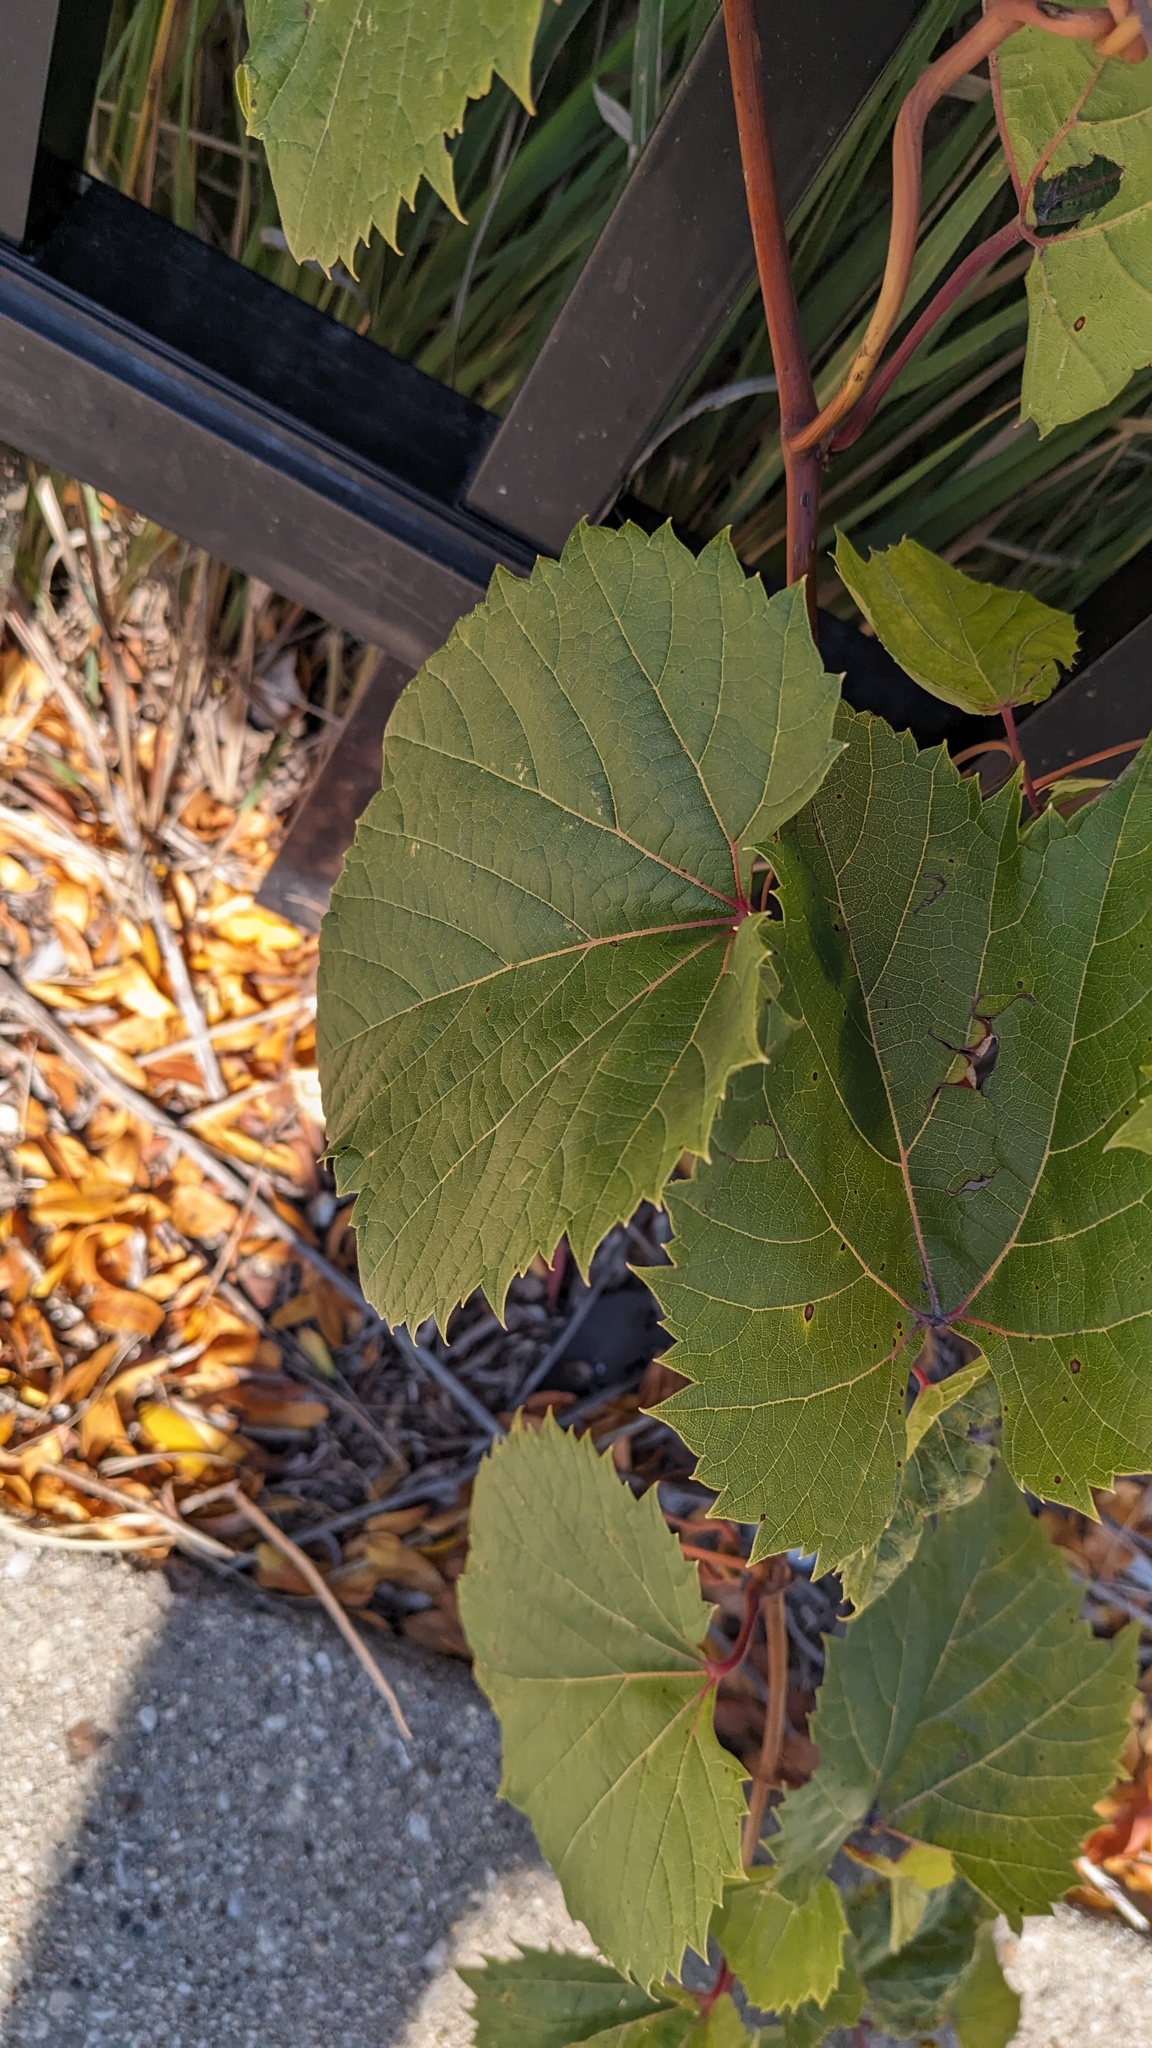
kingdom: Plantae
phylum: Tracheophyta
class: Magnoliopsida
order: Vitales
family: Vitaceae
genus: Vitis
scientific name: Vitis riparia
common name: Frost grape
